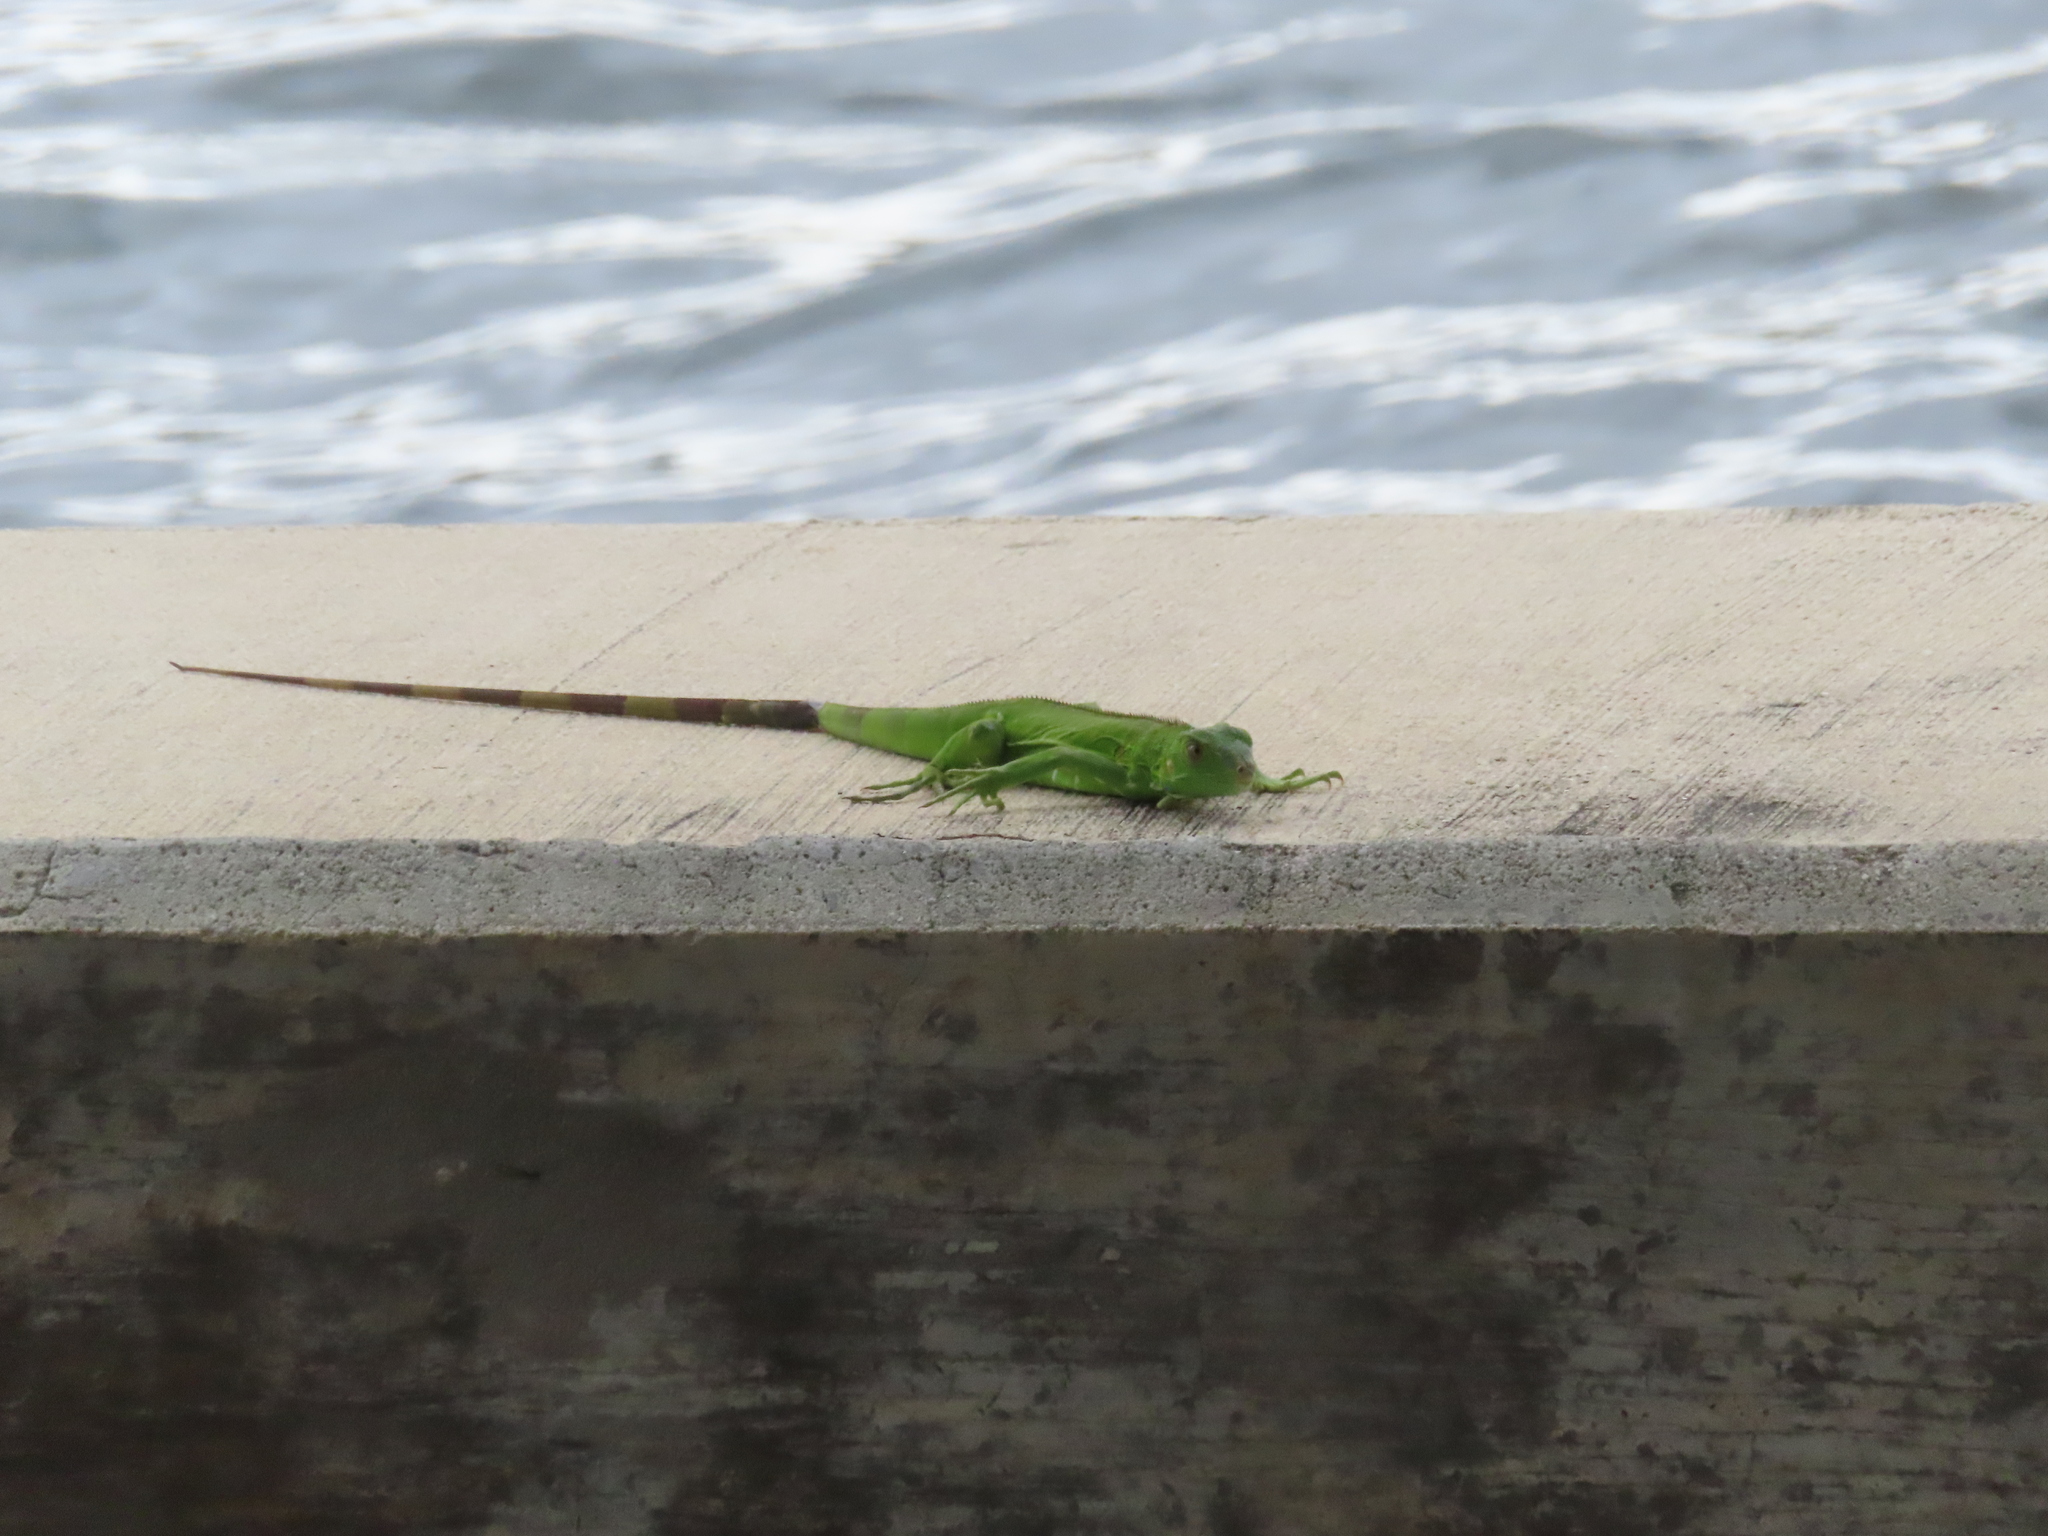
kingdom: Animalia
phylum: Chordata
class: Squamata
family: Iguanidae
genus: Iguana
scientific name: Iguana iguana
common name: Green iguana
